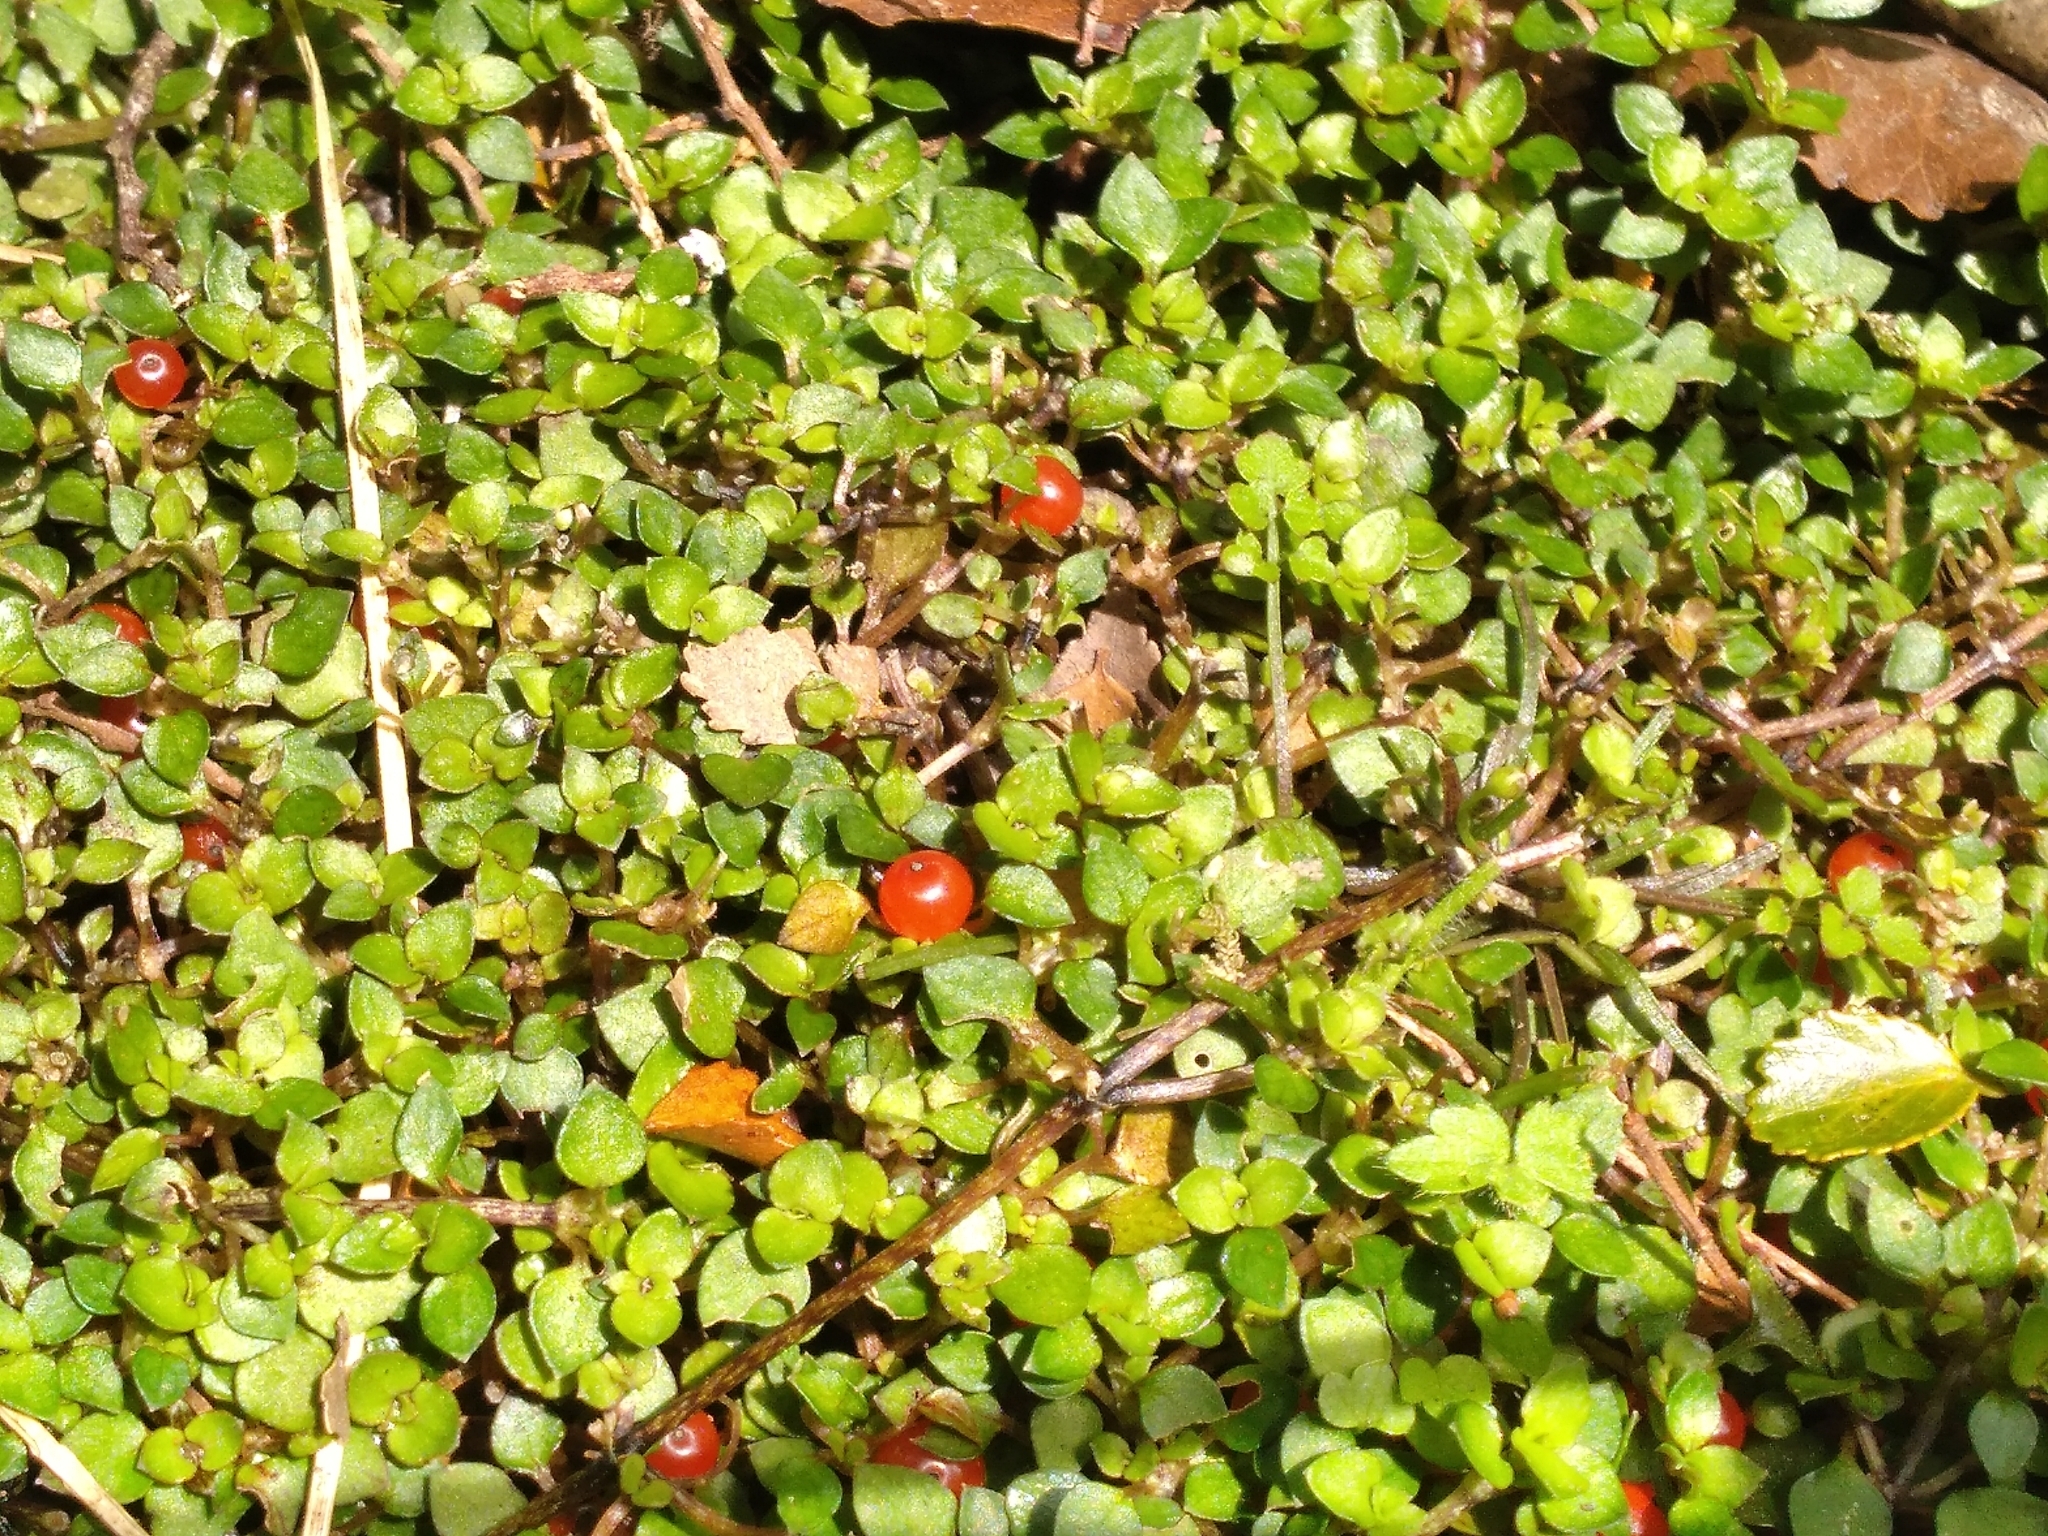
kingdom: Plantae
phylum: Tracheophyta
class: Magnoliopsida
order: Gentianales
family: Rubiaceae
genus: Nertera
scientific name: Nertera granadensis
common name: Beadplant
